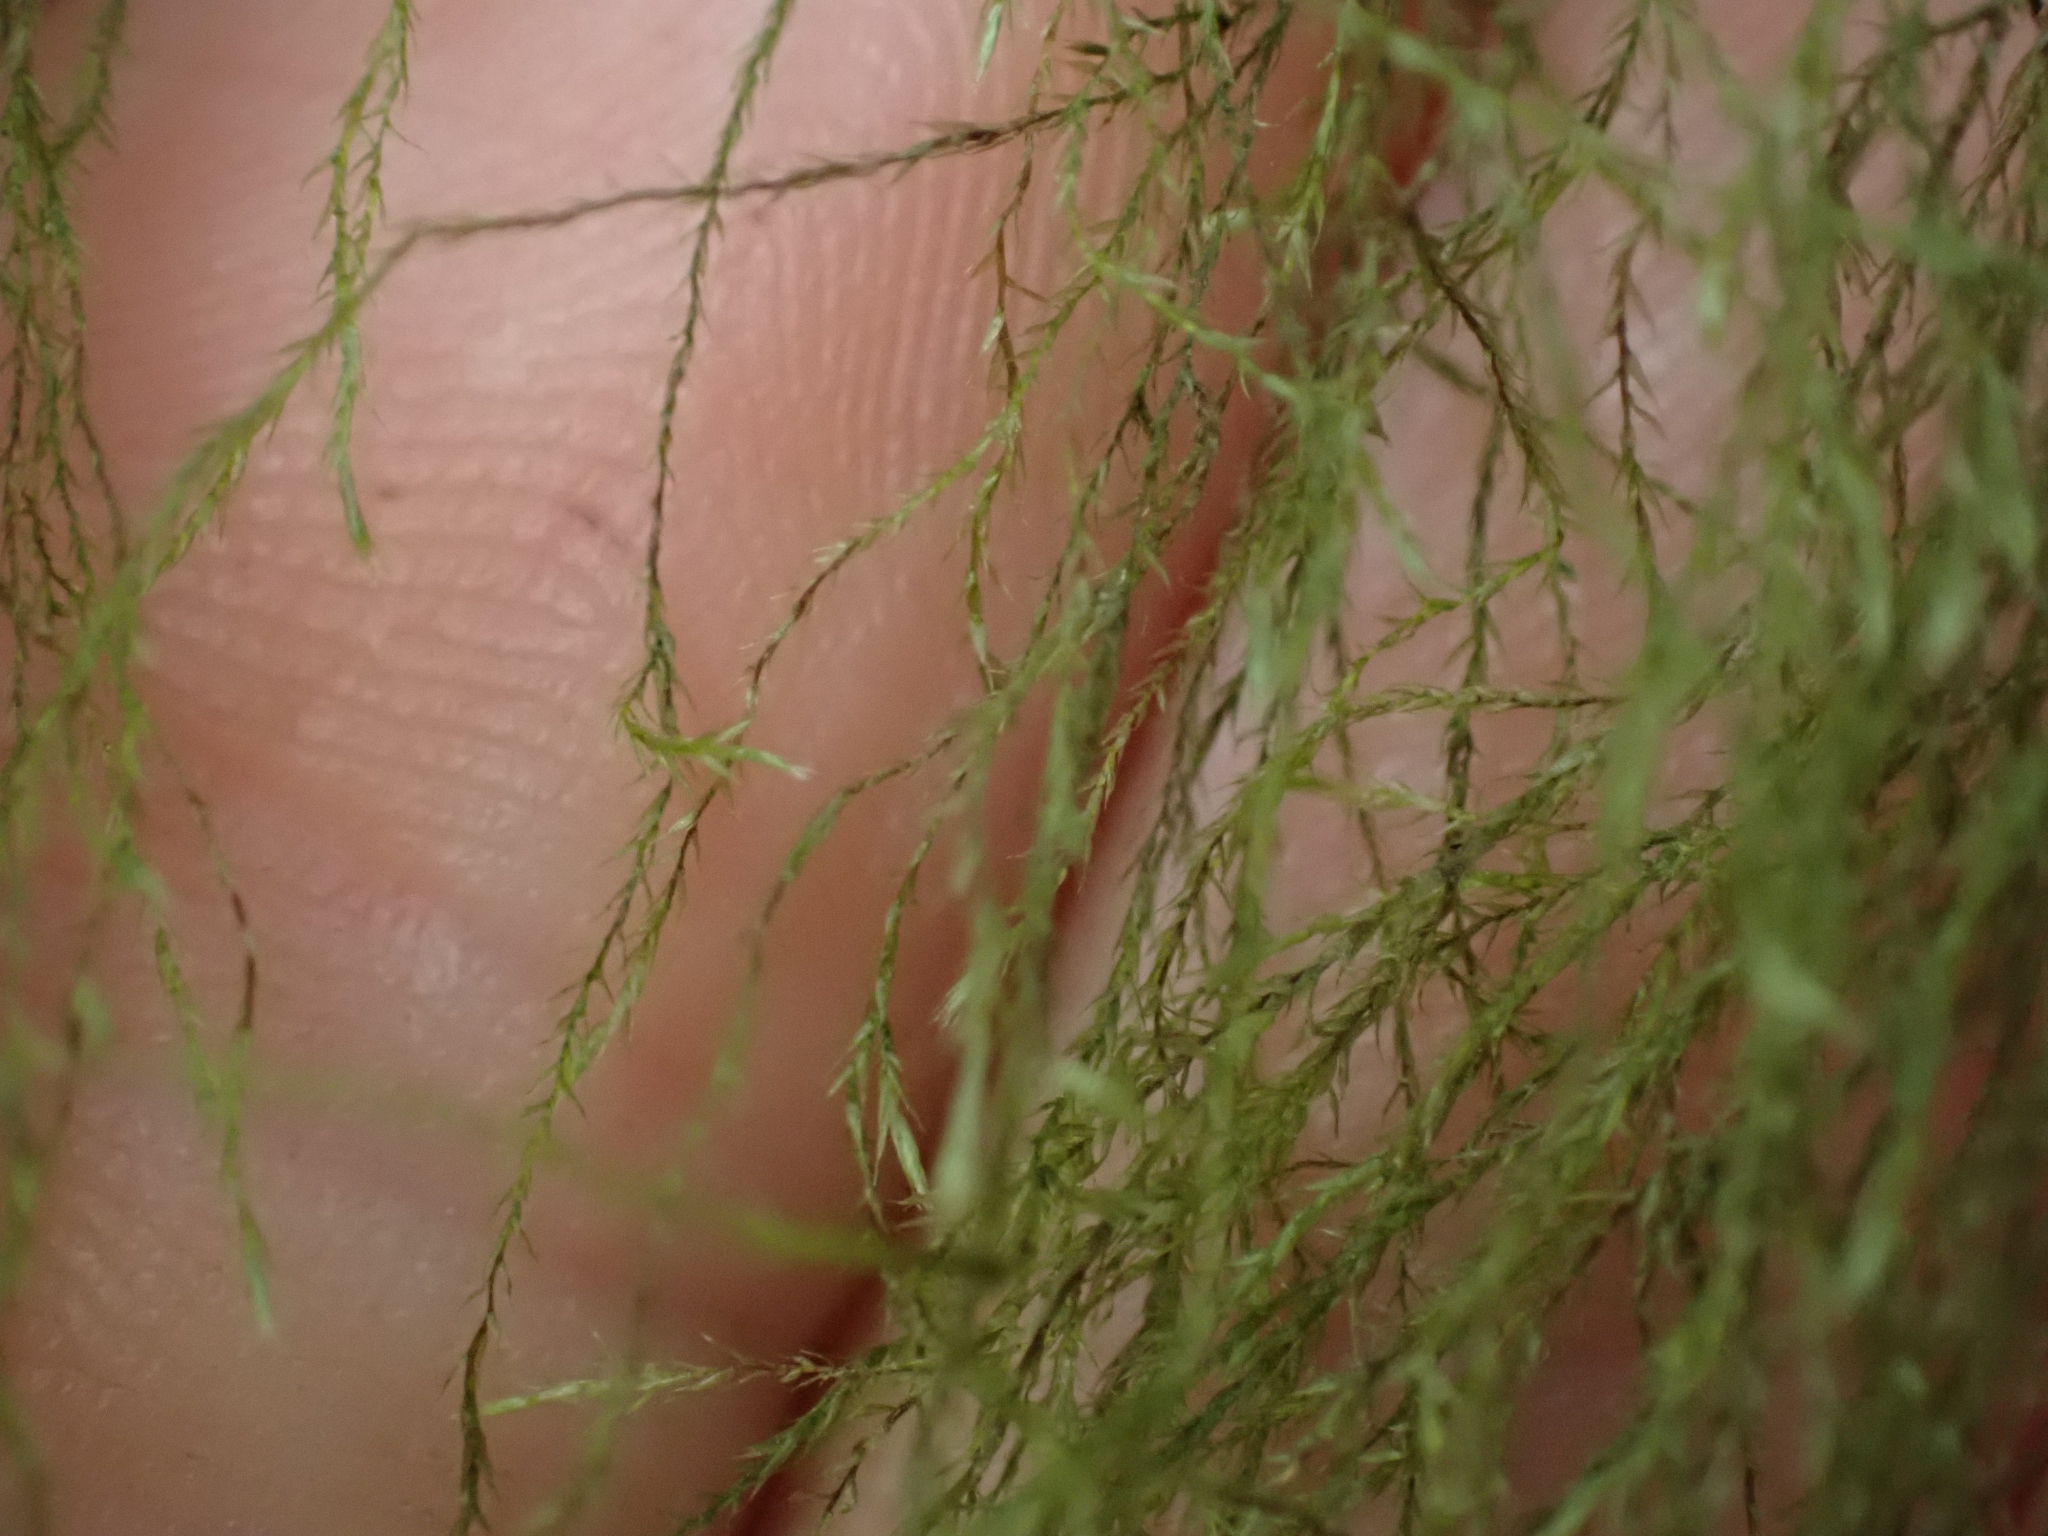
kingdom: Plantae
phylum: Bryophyta
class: Bryopsida
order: Hypnales
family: Lembophyllaceae
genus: Pseudisothecium
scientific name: Pseudisothecium stoloniferum
